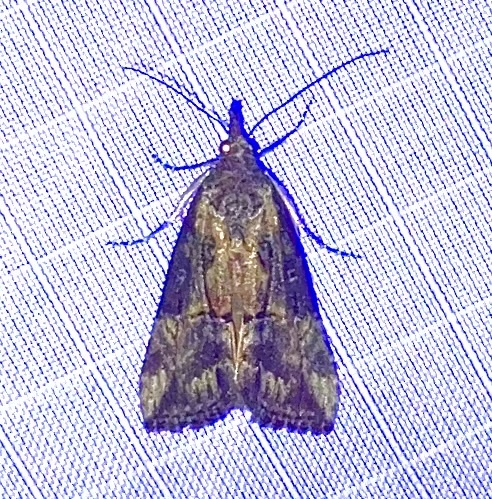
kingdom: Animalia
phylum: Arthropoda
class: Insecta
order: Lepidoptera
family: Erebidae
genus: Hypena
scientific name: Hypena scabra
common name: Green cloverworm
